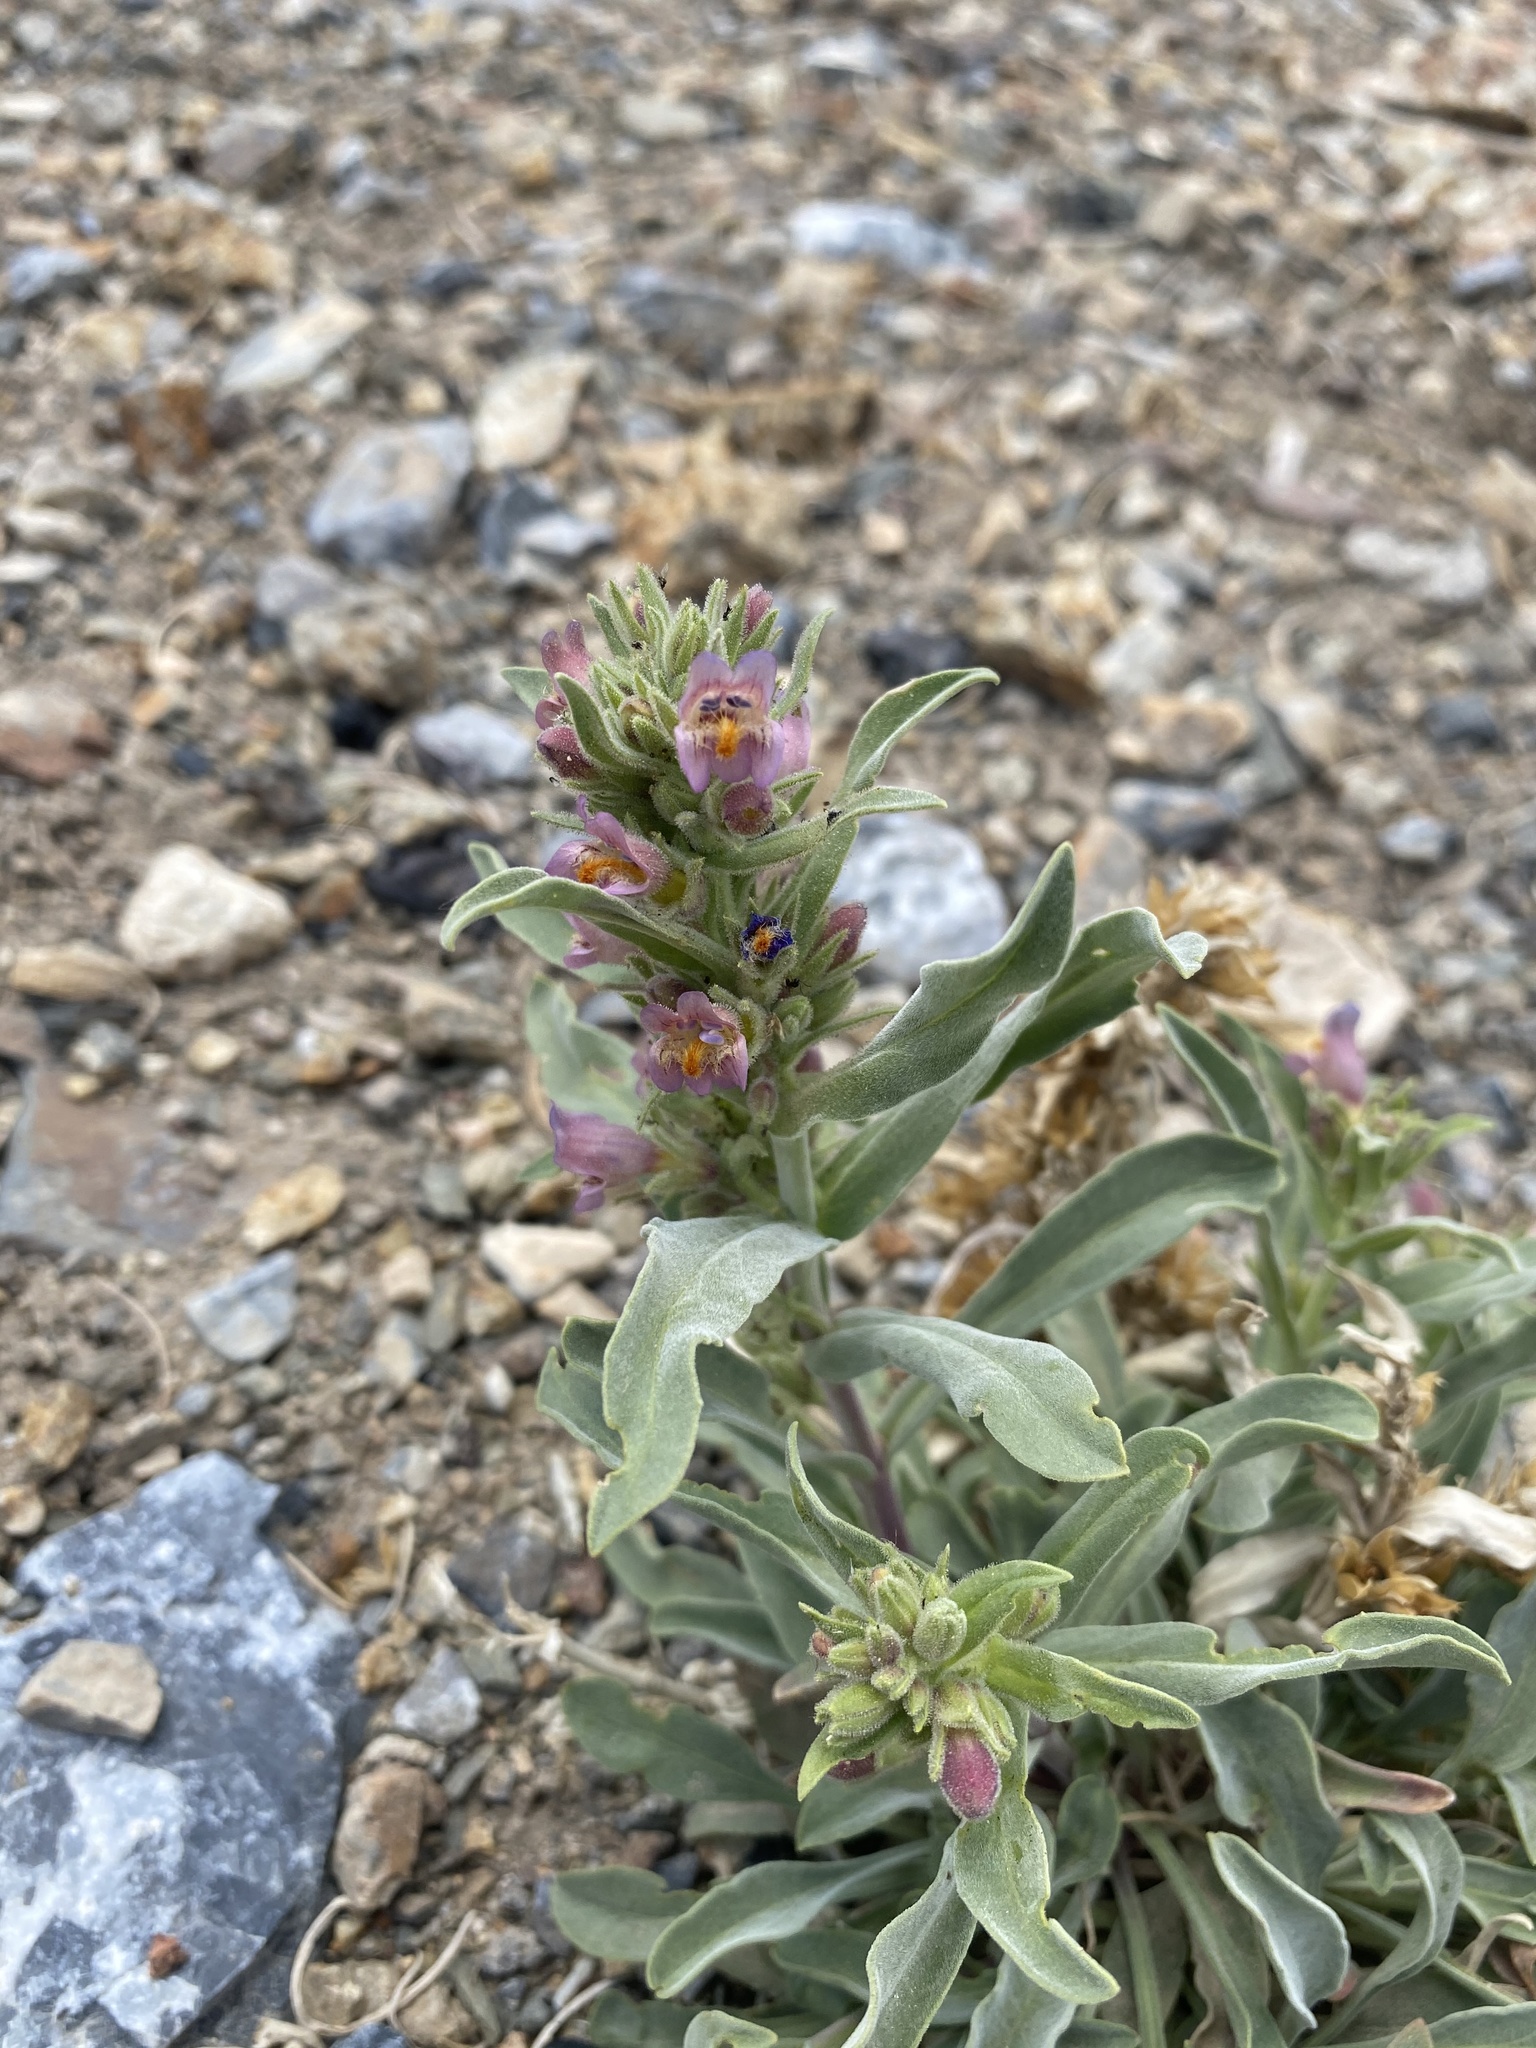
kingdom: Plantae
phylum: Tracheophyta
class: Magnoliopsida
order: Lamiales
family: Plantaginaceae
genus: Penstemon
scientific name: Penstemon barnebyi
